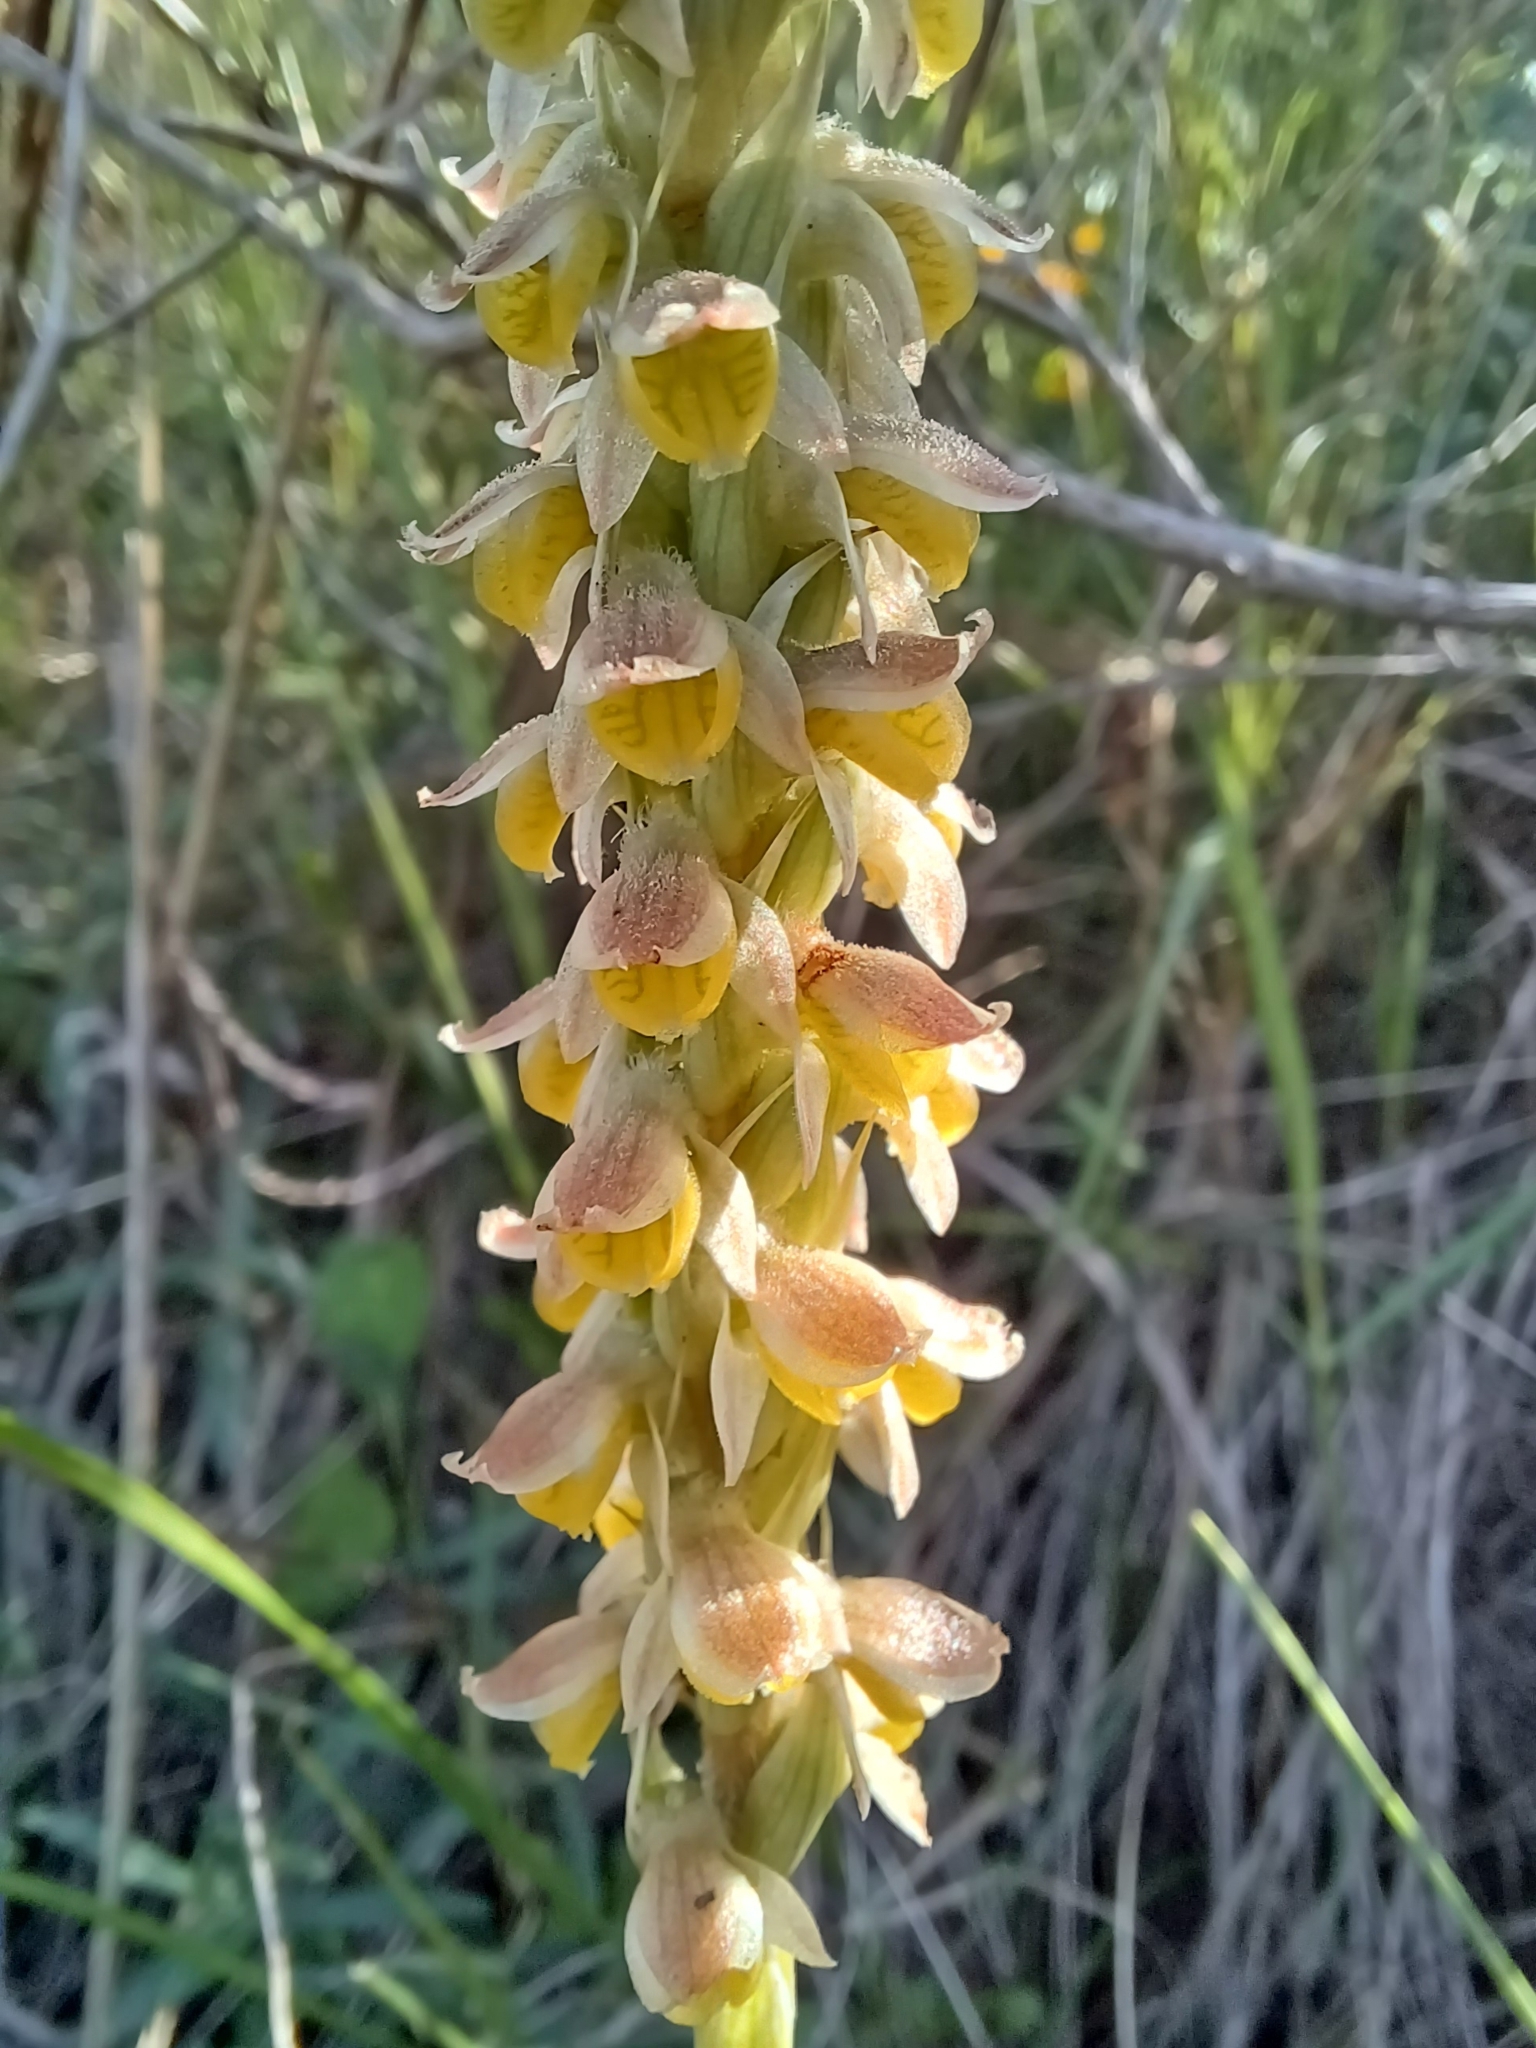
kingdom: Plantae
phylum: Tracheophyta
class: Liliopsida
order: Asparagales
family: Orchidaceae
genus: Brachystele
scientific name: Brachystele dilatata
